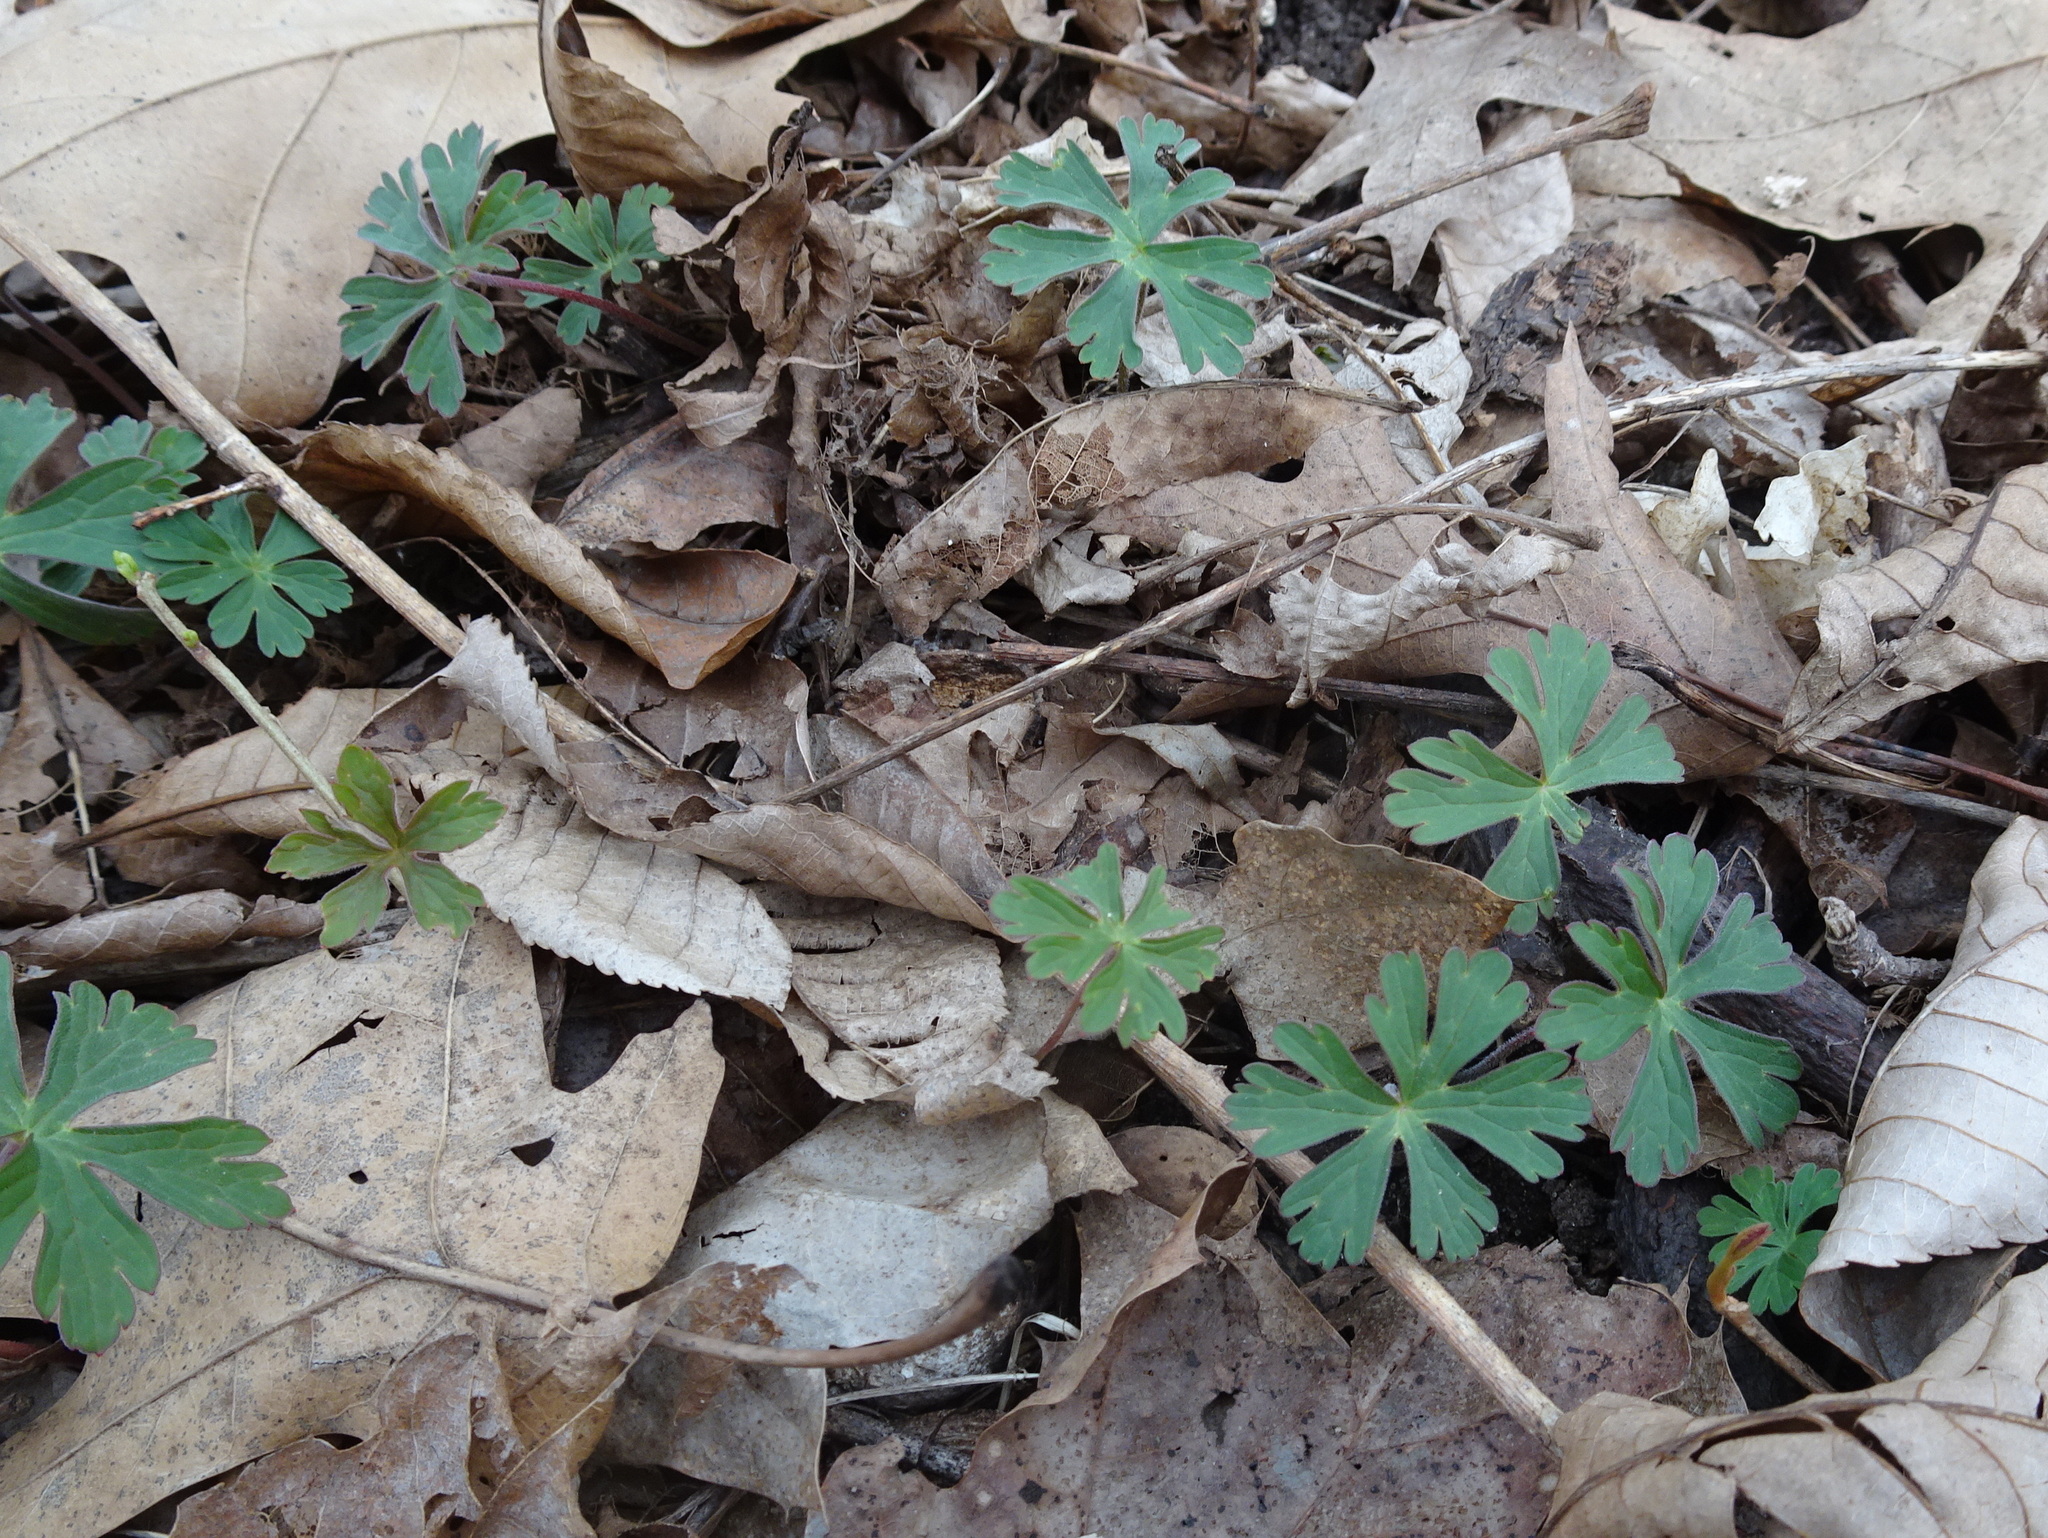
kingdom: Plantae
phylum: Tracheophyta
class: Magnoliopsida
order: Geraniales
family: Geraniaceae
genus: Geranium
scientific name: Geranium maculatum
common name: Spotted geranium
